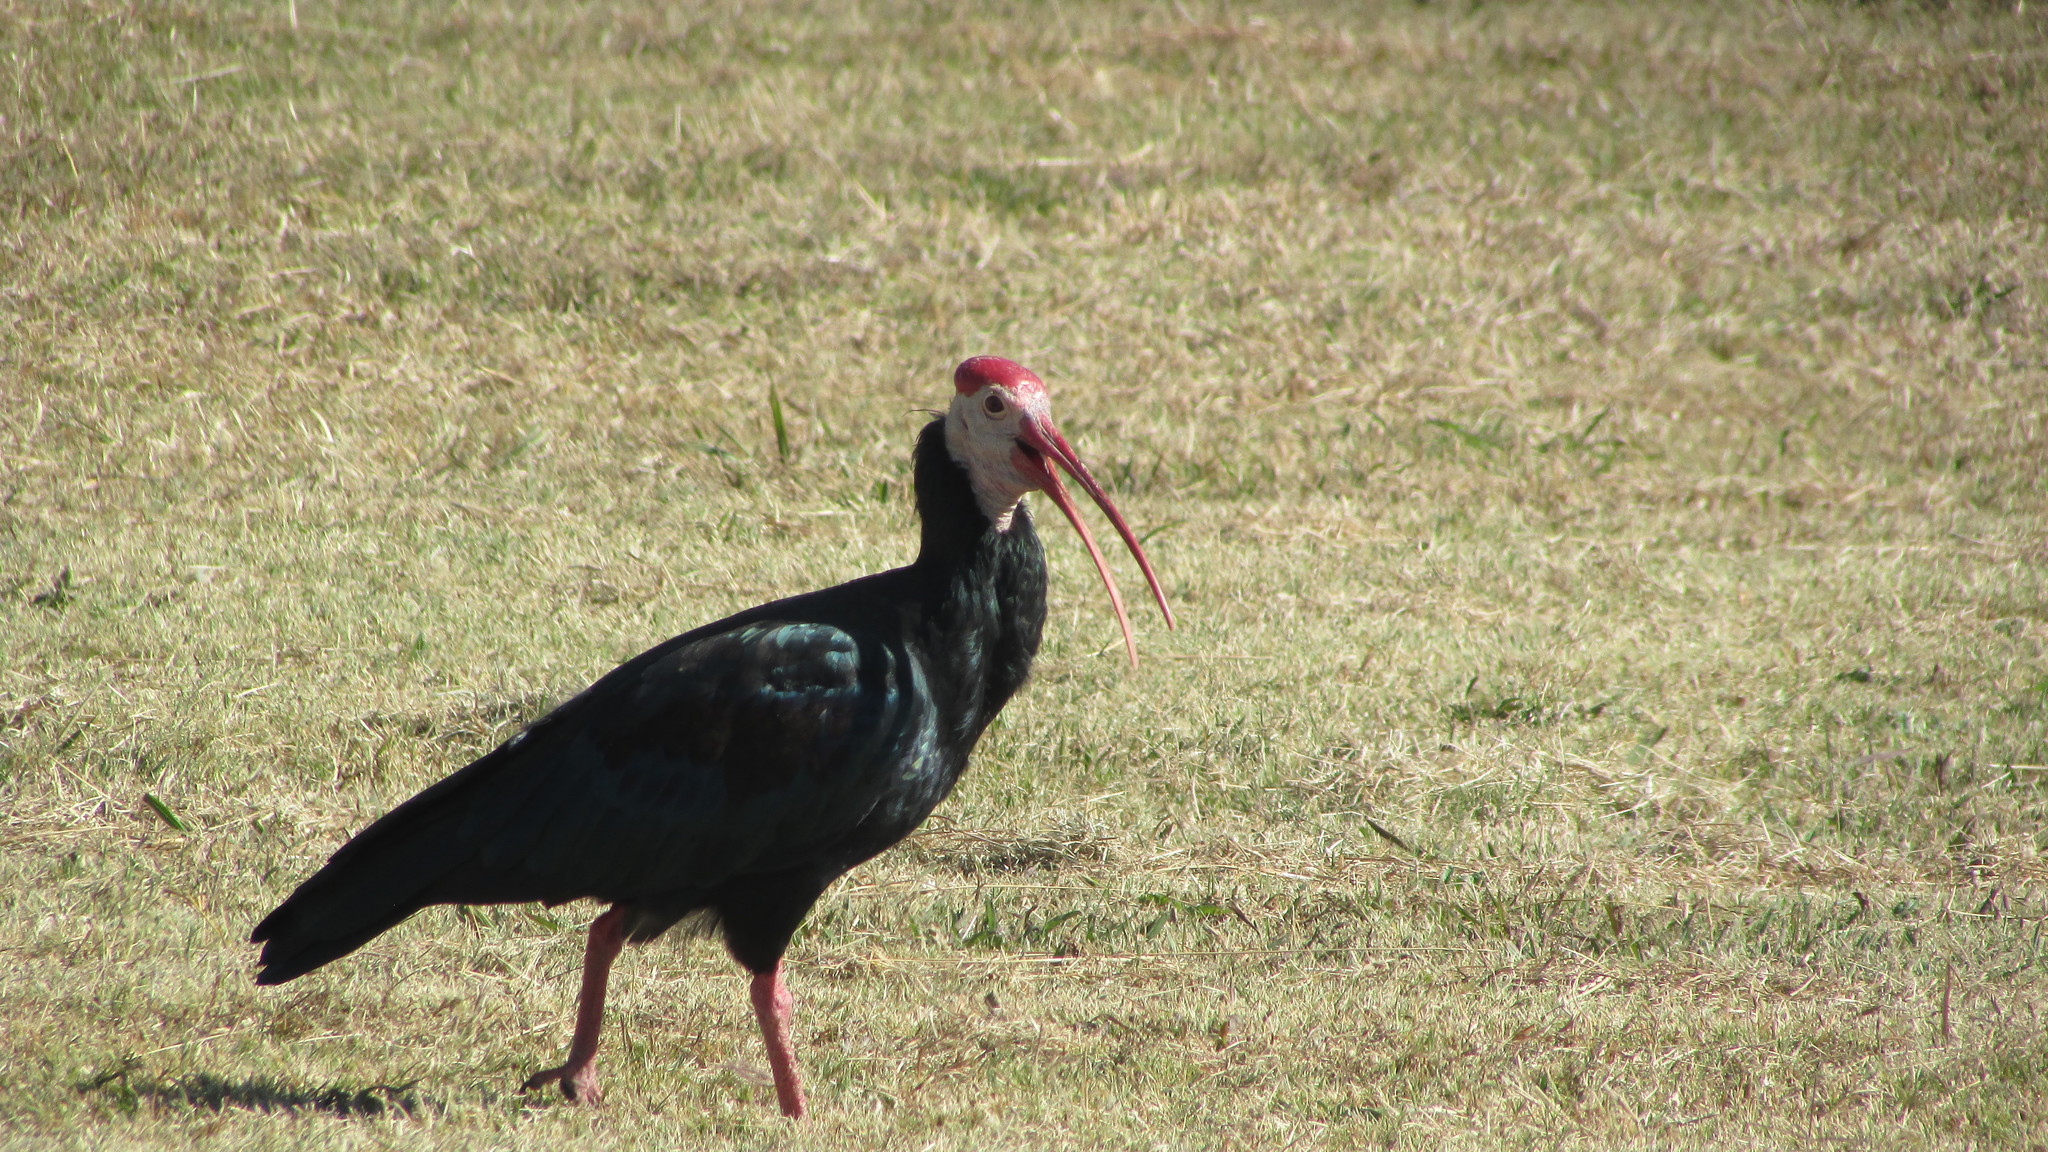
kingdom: Animalia
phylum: Chordata
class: Aves
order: Pelecaniformes
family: Threskiornithidae
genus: Geronticus
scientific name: Geronticus calvus
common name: Southern bald ibis
